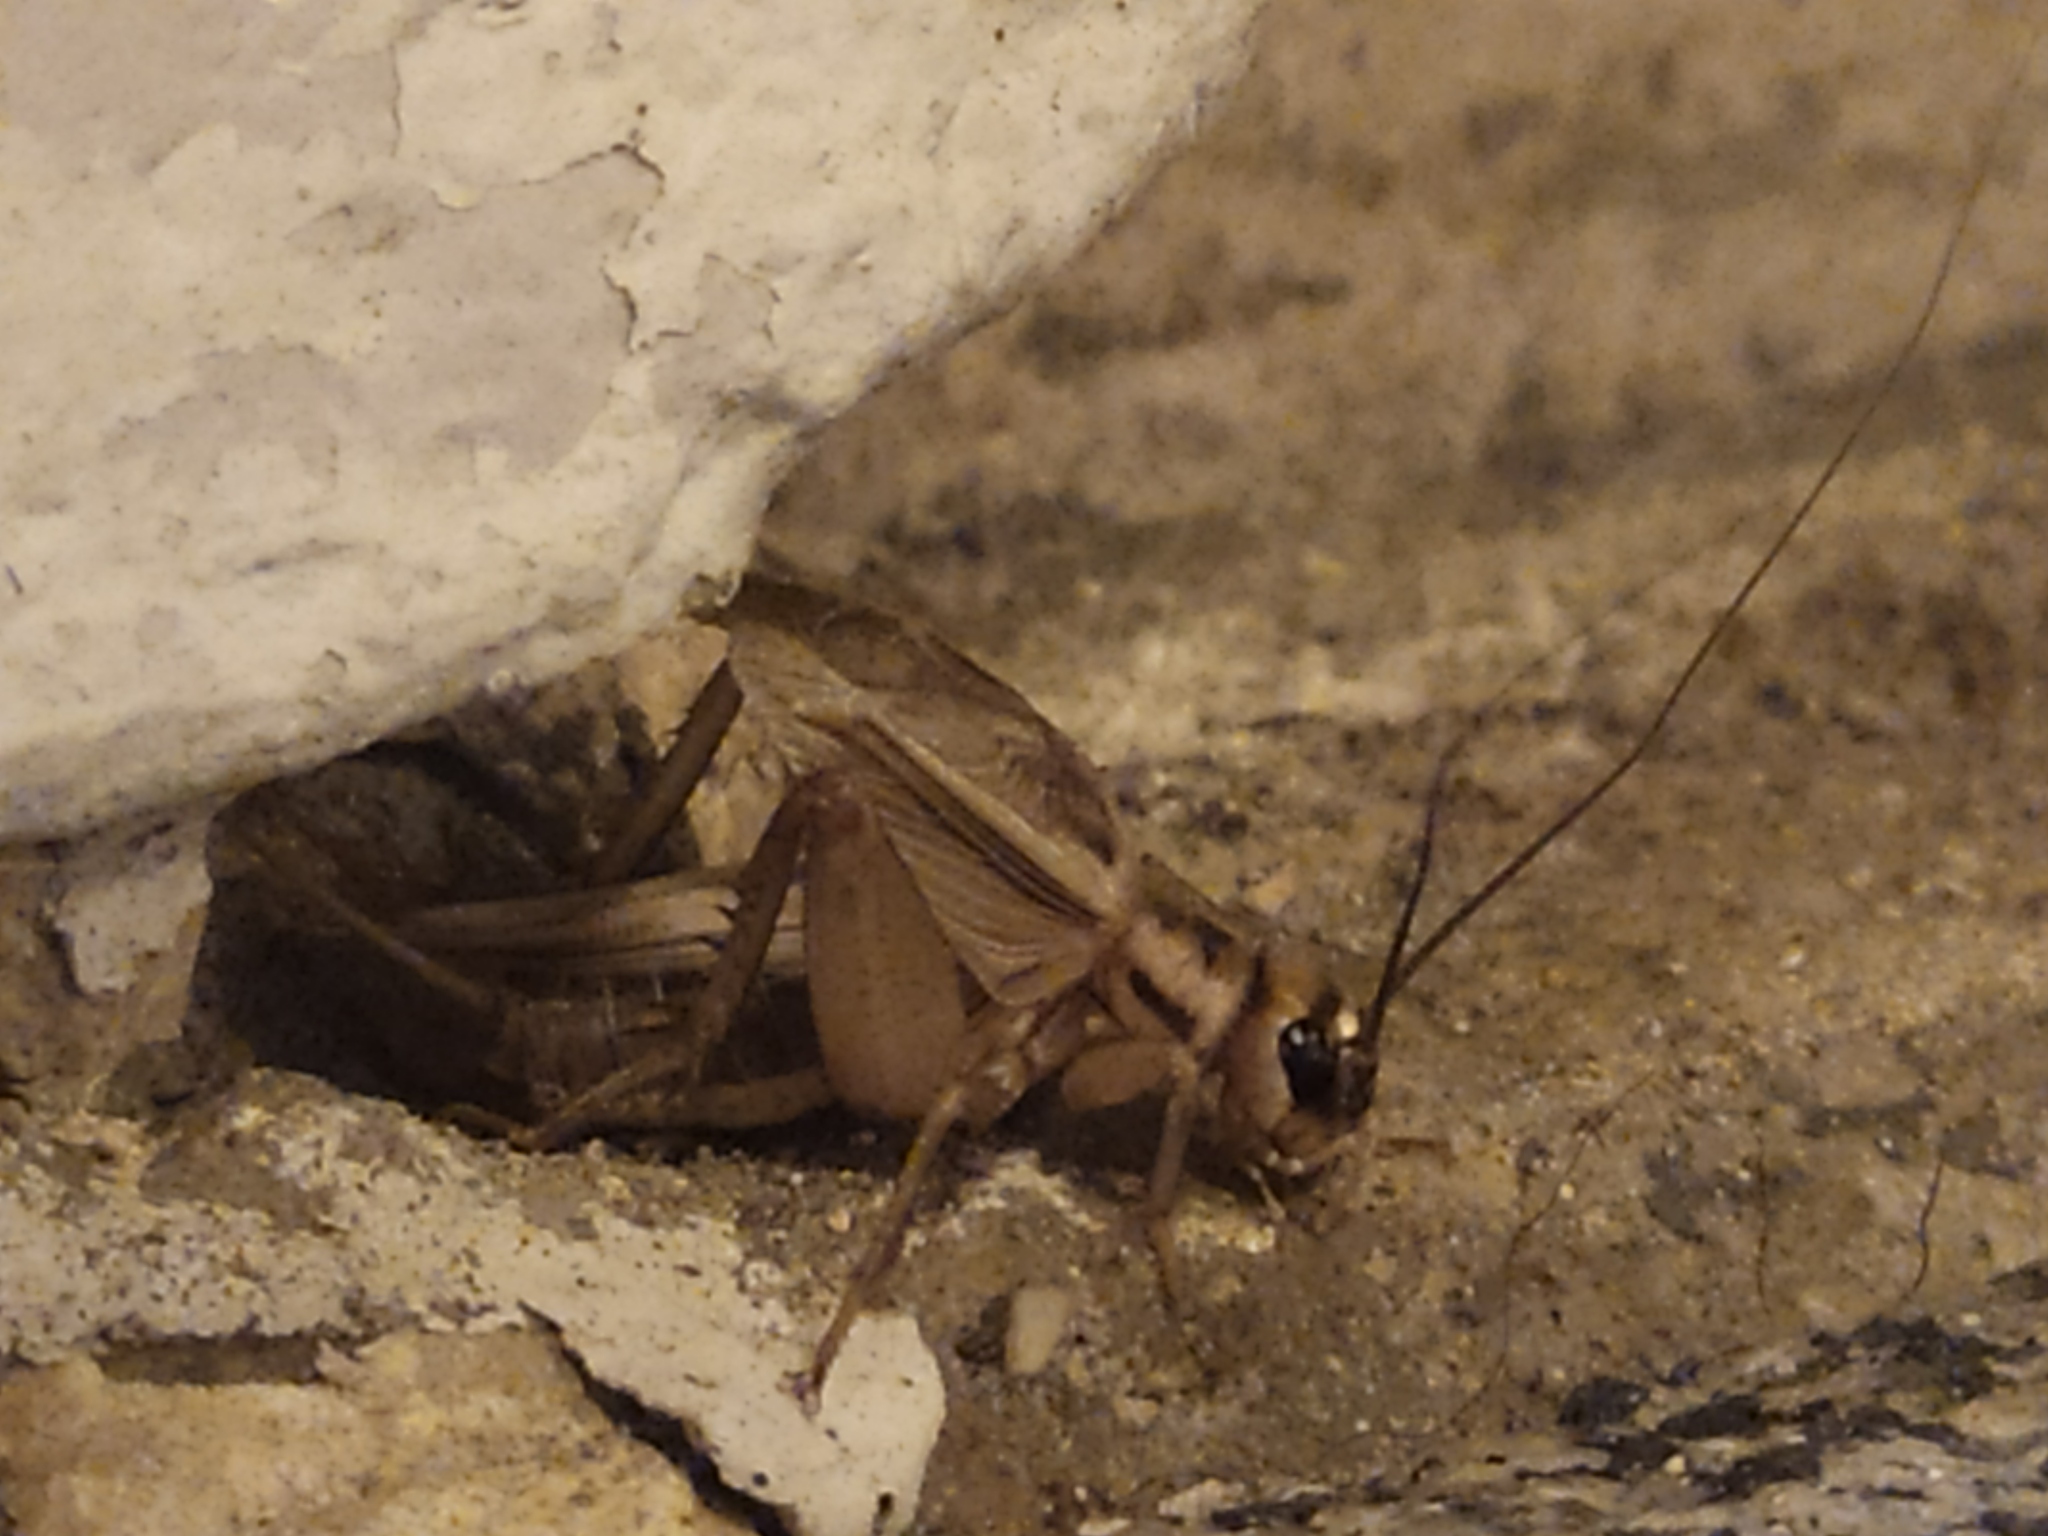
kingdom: Animalia
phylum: Arthropoda
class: Insecta
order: Orthoptera
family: Gryllidae
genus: Acheta
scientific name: Acheta domesticus
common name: House cricket
